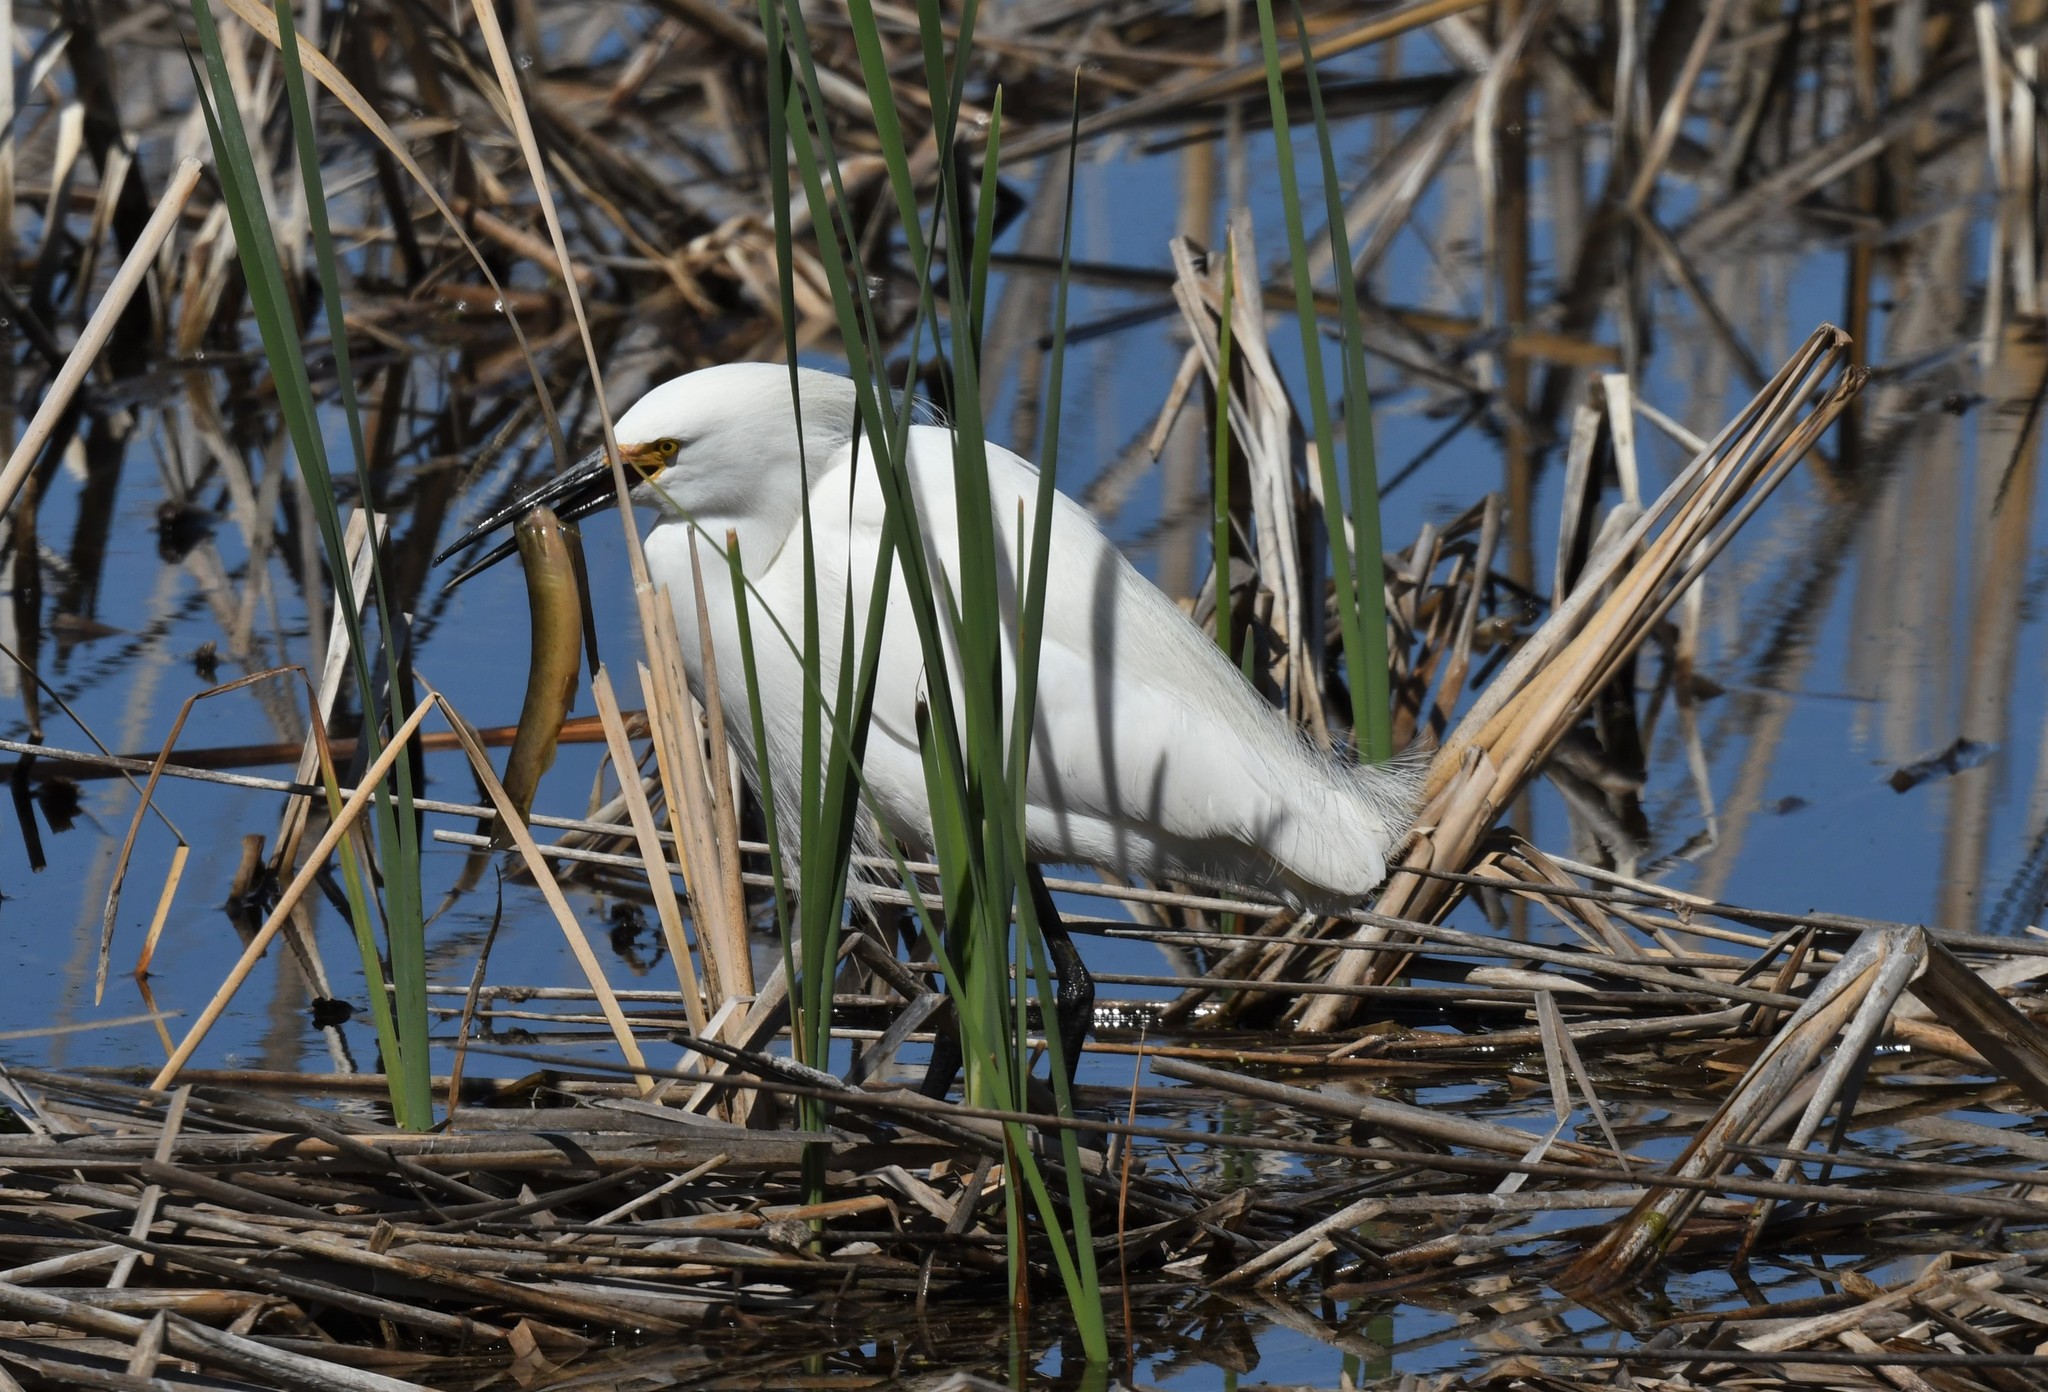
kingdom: Animalia
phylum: Chordata
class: Aves
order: Pelecaniformes
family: Ardeidae
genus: Egretta
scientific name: Egretta thula
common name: Snowy egret
